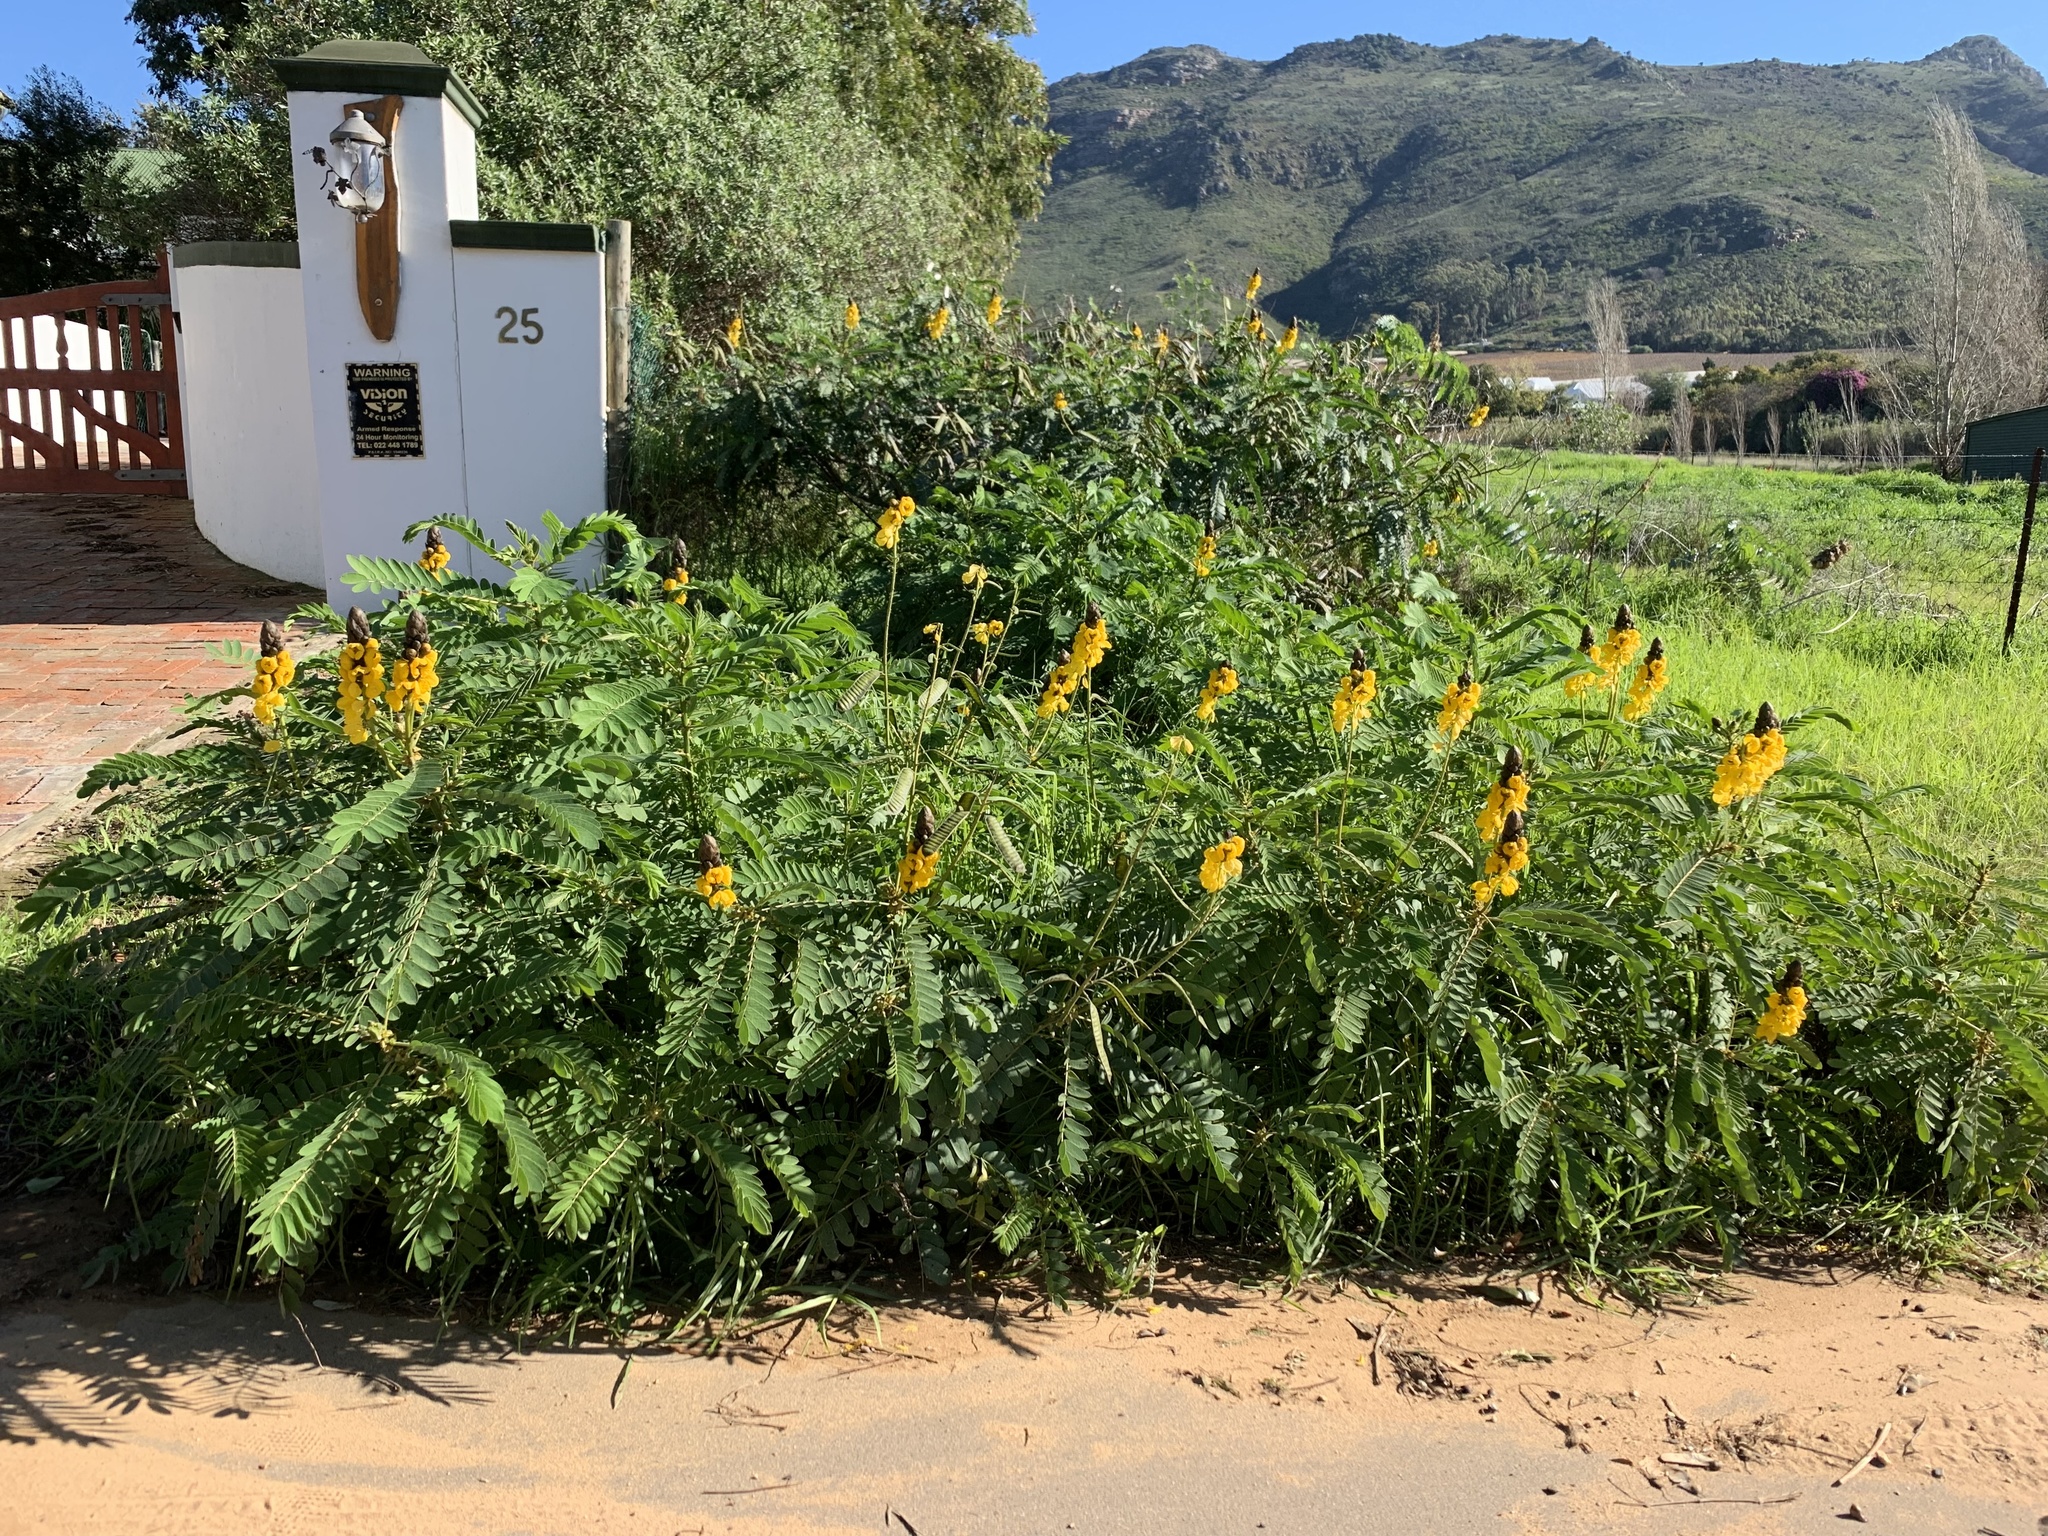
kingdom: Plantae
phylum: Tracheophyta
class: Magnoliopsida
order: Fabales
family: Fabaceae
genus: Senna
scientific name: Senna didymobotrya
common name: African senna
